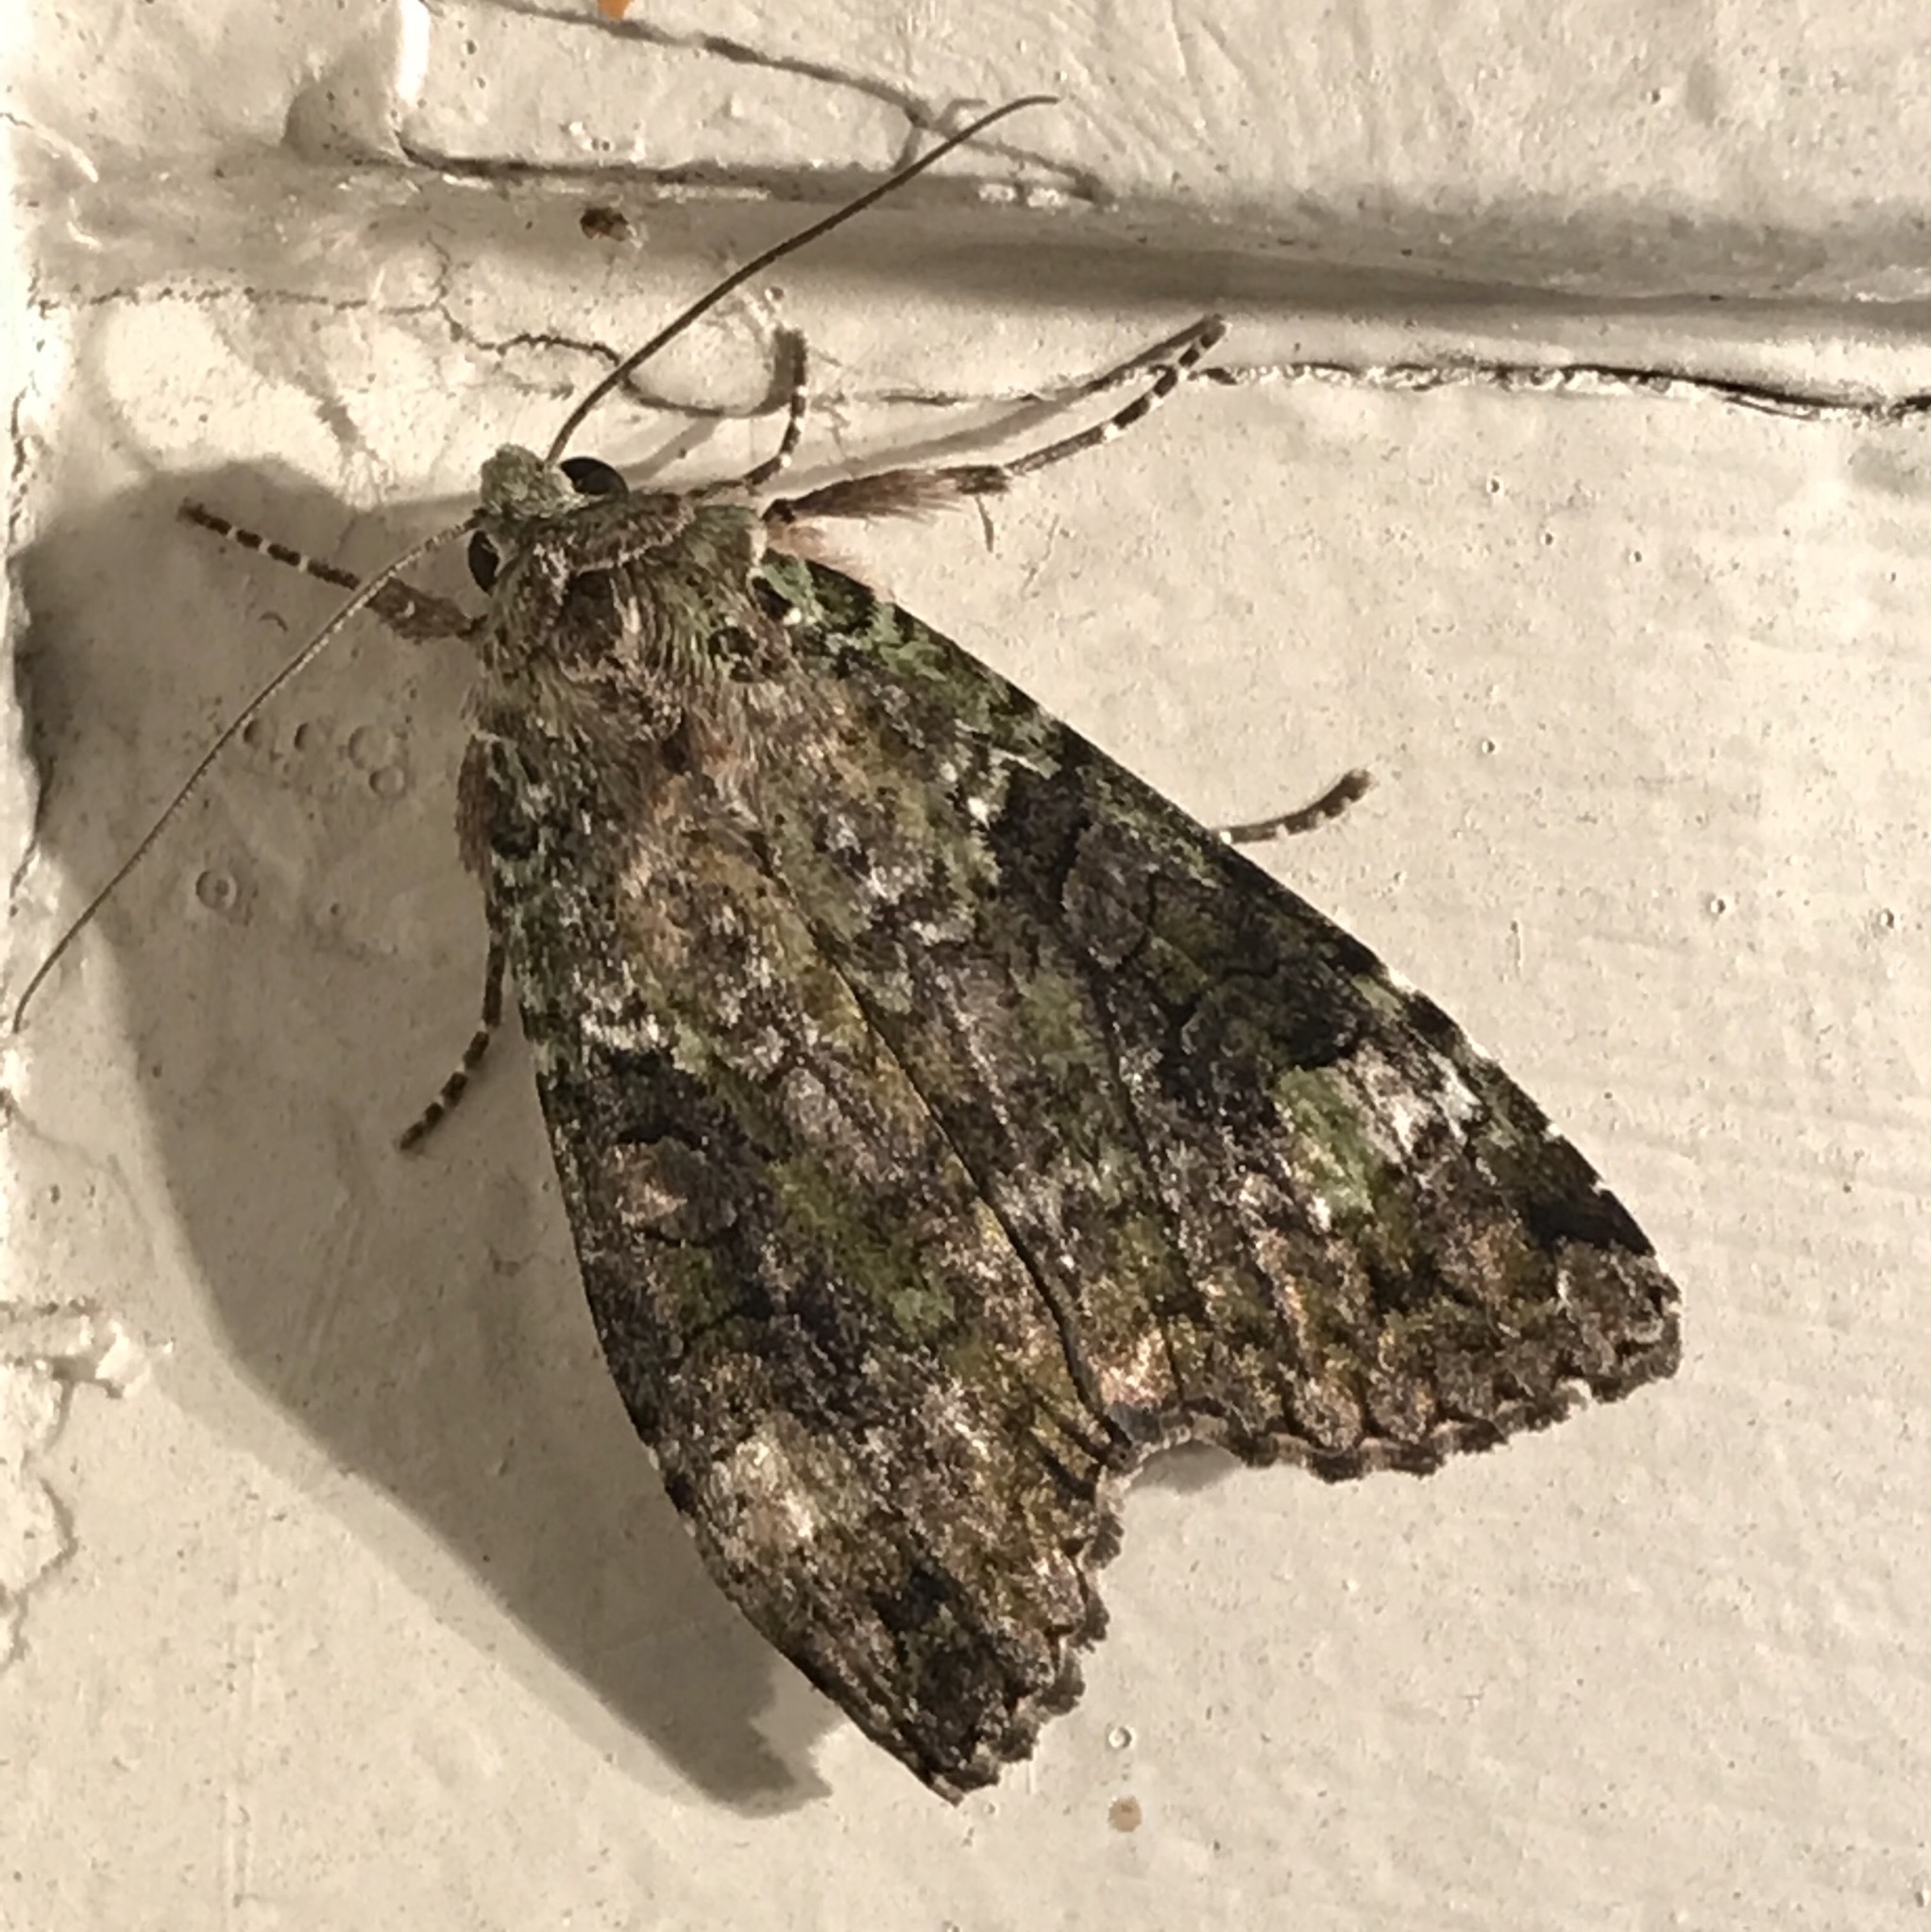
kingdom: Animalia
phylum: Arthropoda
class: Insecta
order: Lepidoptera
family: Noctuidae
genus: Anaplectoides
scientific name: Anaplectoides prasina
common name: Green arches
